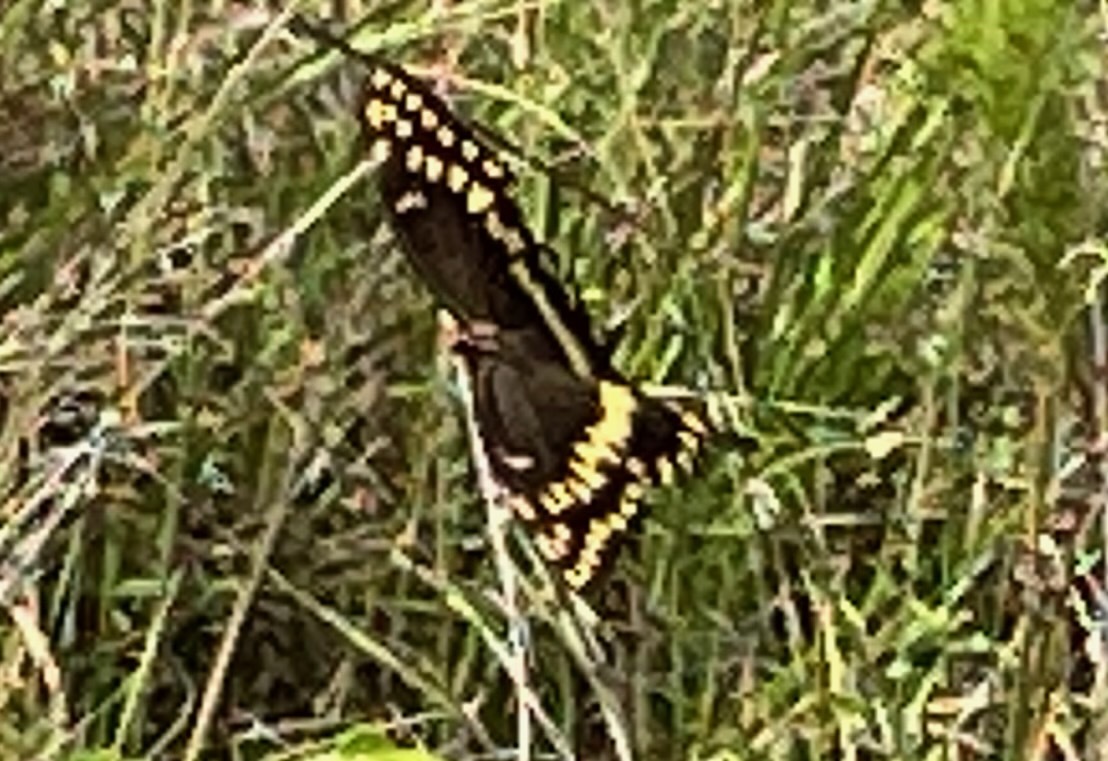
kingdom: Animalia
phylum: Arthropoda
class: Insecta
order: Lepidoptera
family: Papilionidae
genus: Papilio
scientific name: Papilio palamedes
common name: Palamedes swallowtail
